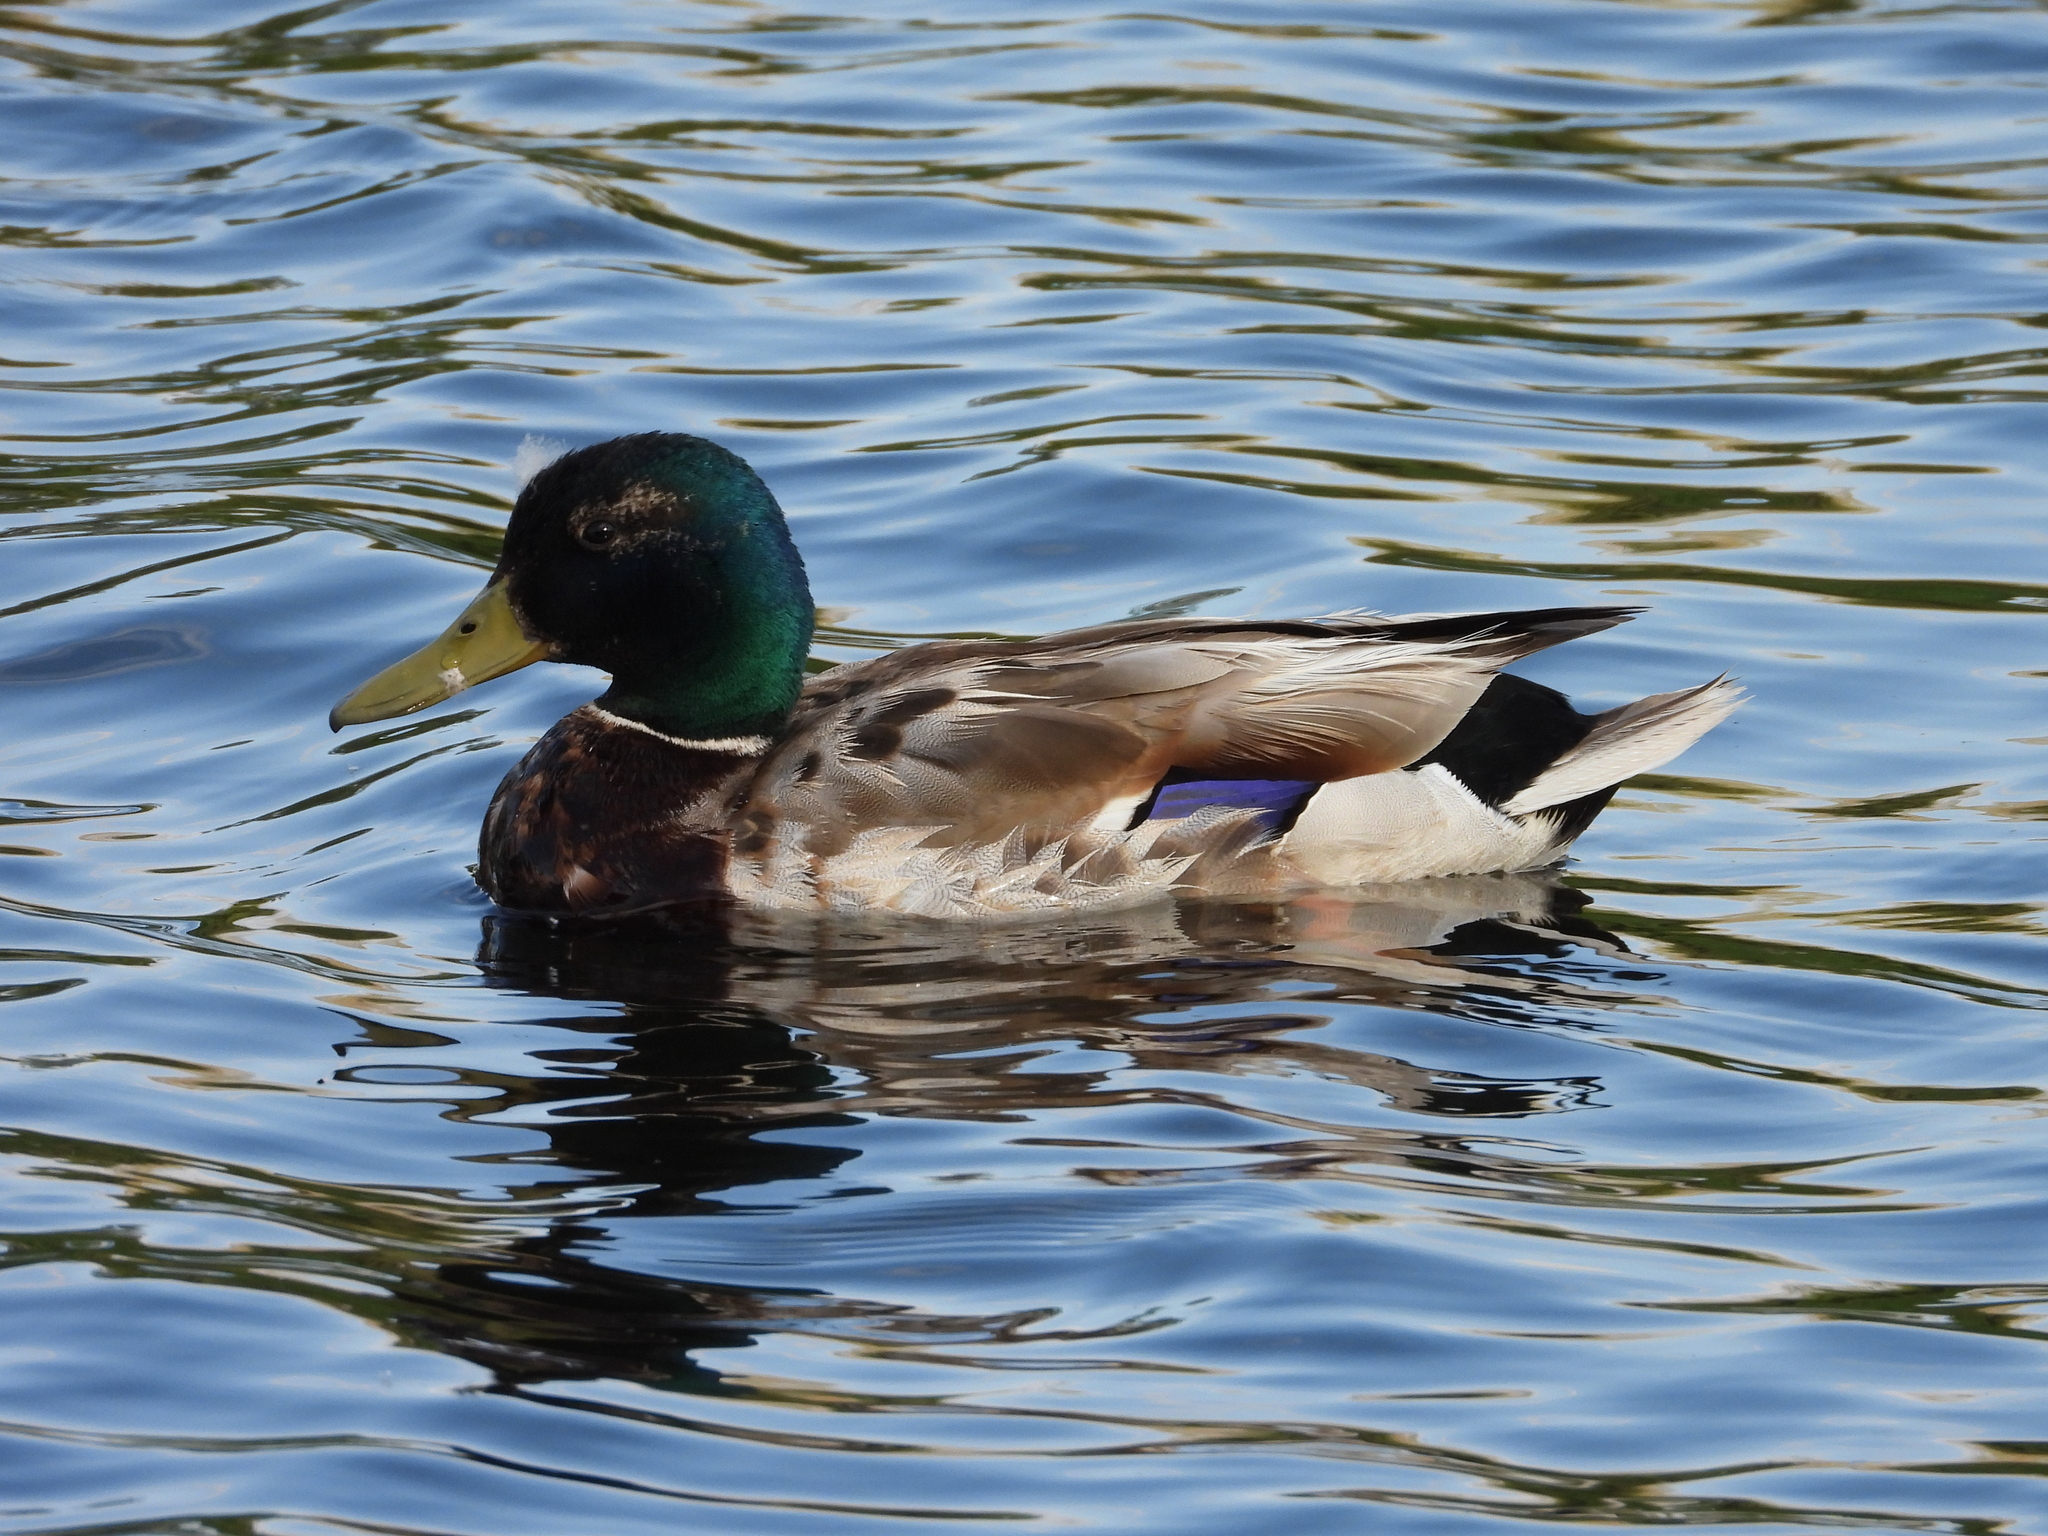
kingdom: Animalia
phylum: Chordata
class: Aves
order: Anseriformes
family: Anatidae
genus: Anas
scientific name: Anas platyrhynchos
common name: Mallard
